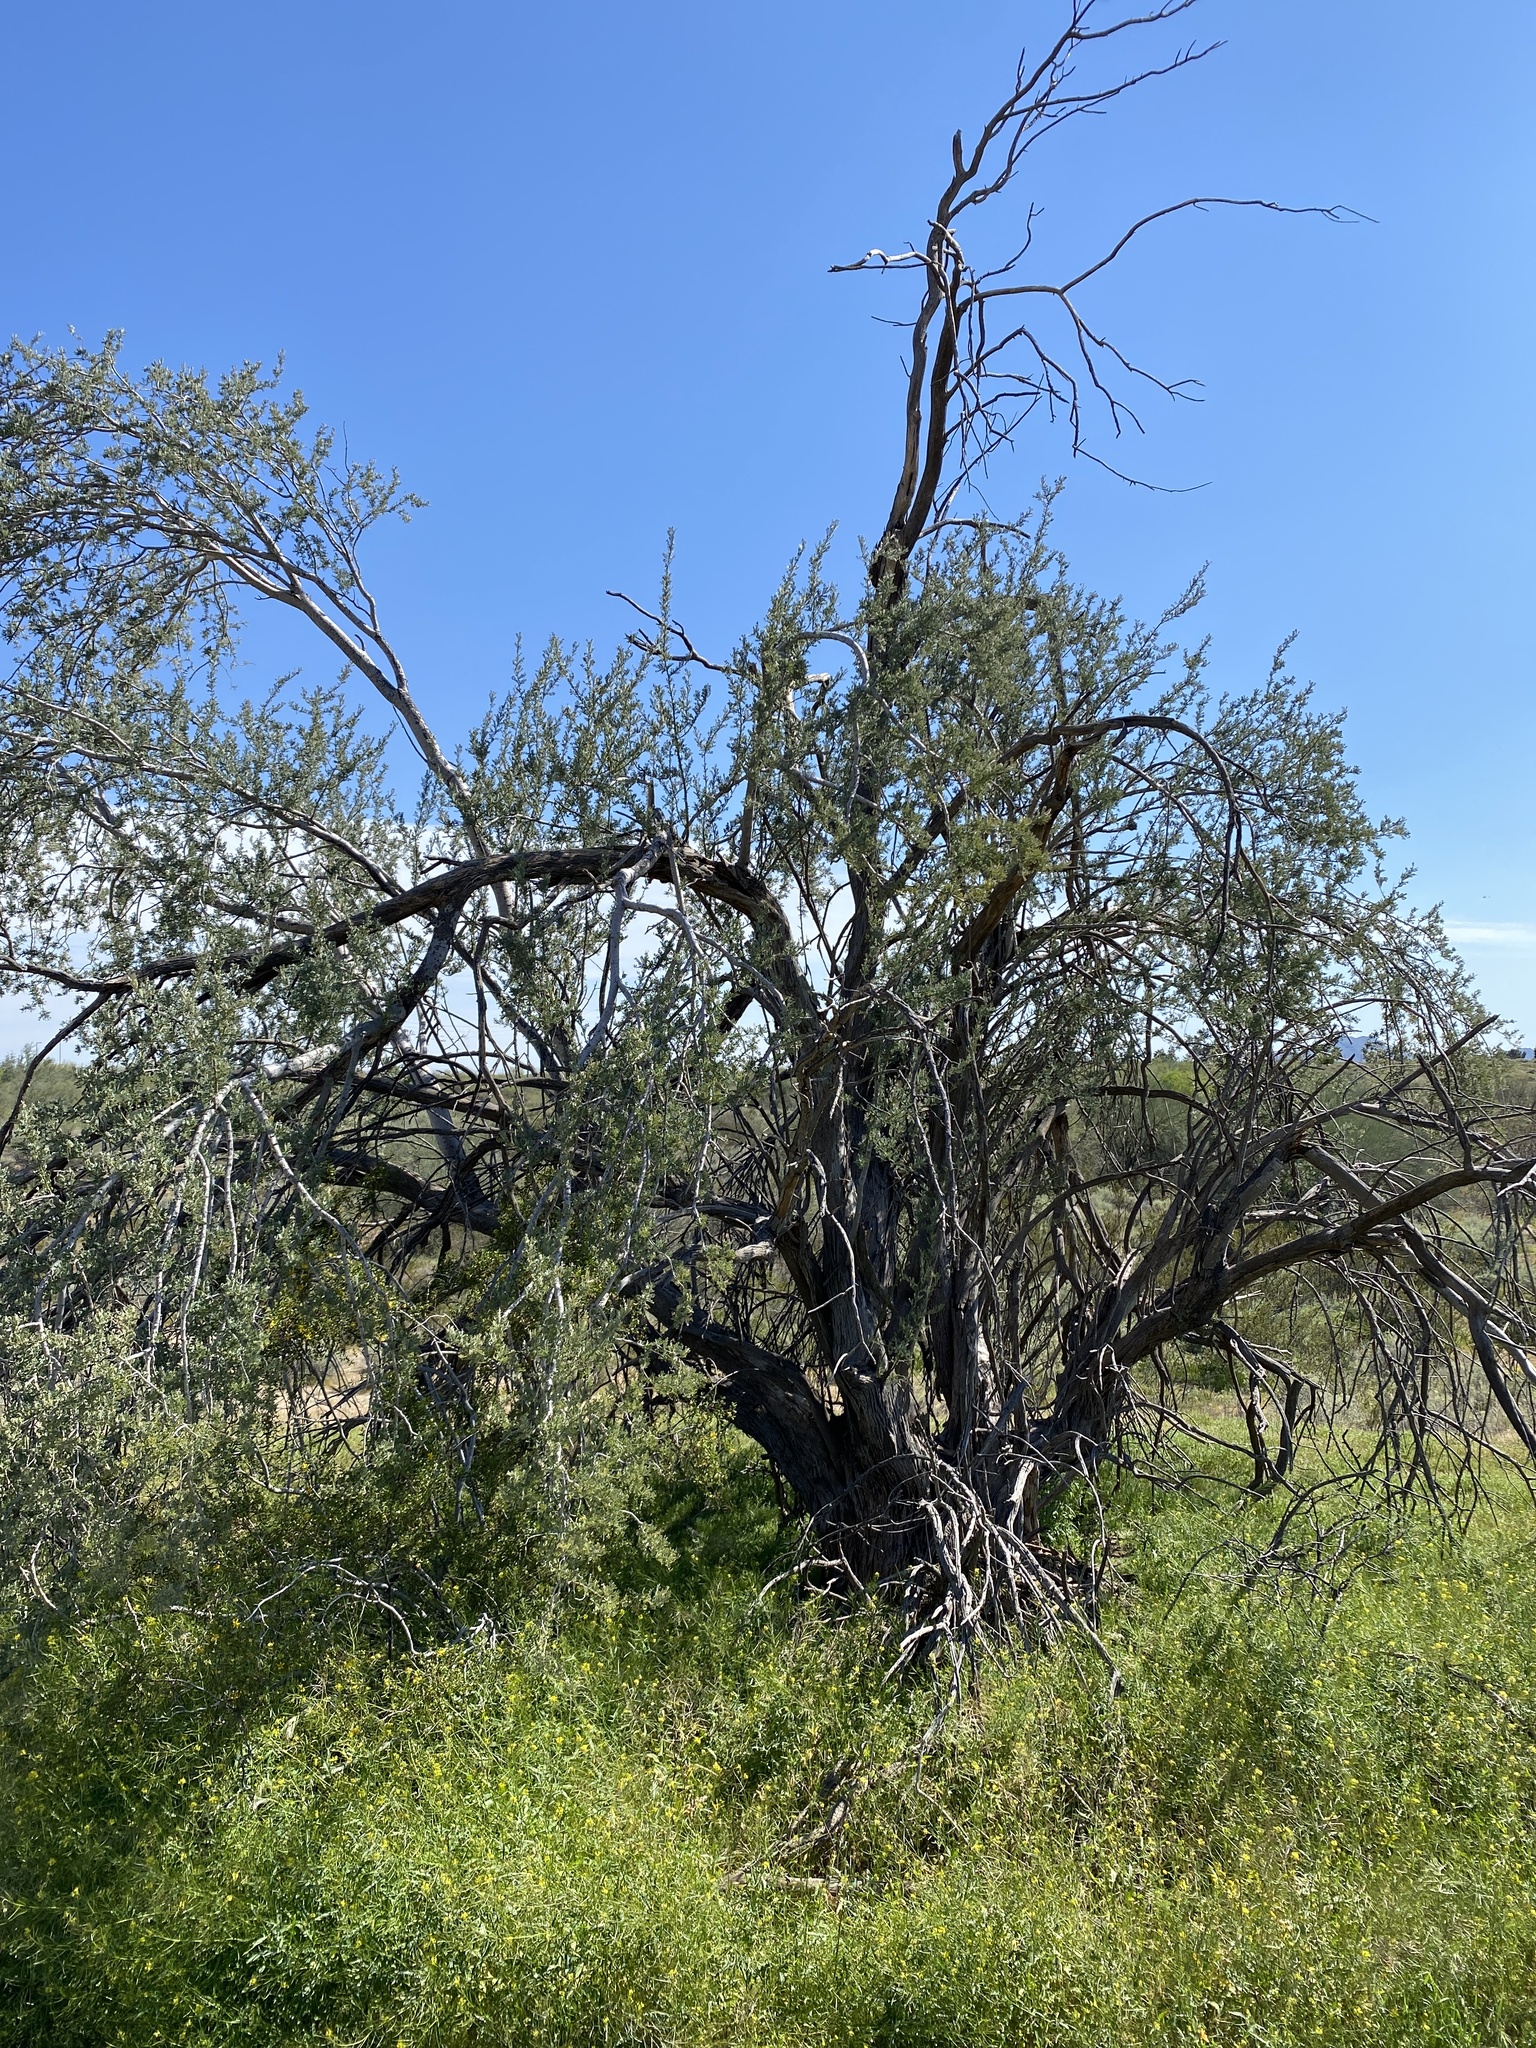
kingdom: Plantae
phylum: Tracheophyta
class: Magnoliopsida
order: Fabales
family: Fabaceae
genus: Olneya
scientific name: Olneya tesota
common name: Desert ironwood
